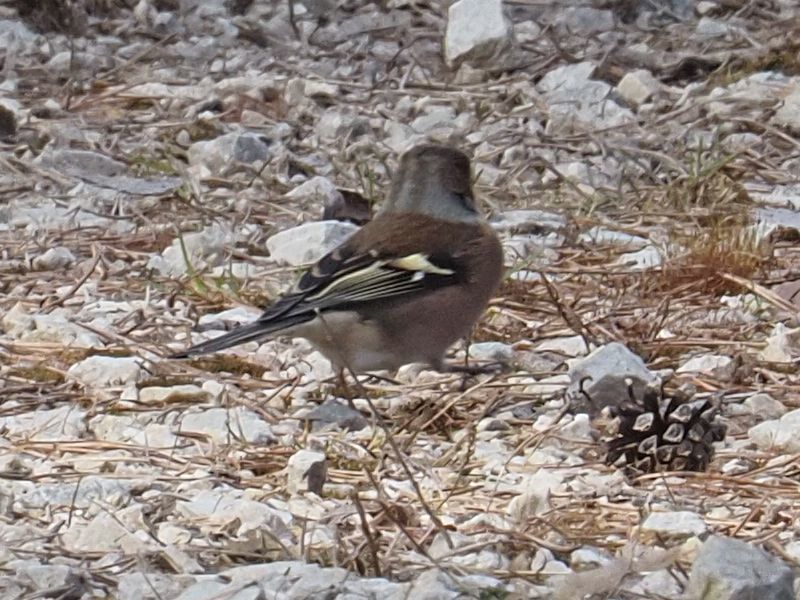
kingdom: Animalia
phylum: Chordata
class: Aves
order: Passeriformes
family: Fringillidae
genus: Fringilla
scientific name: Fringilla coelebs
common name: Common chaffinch
